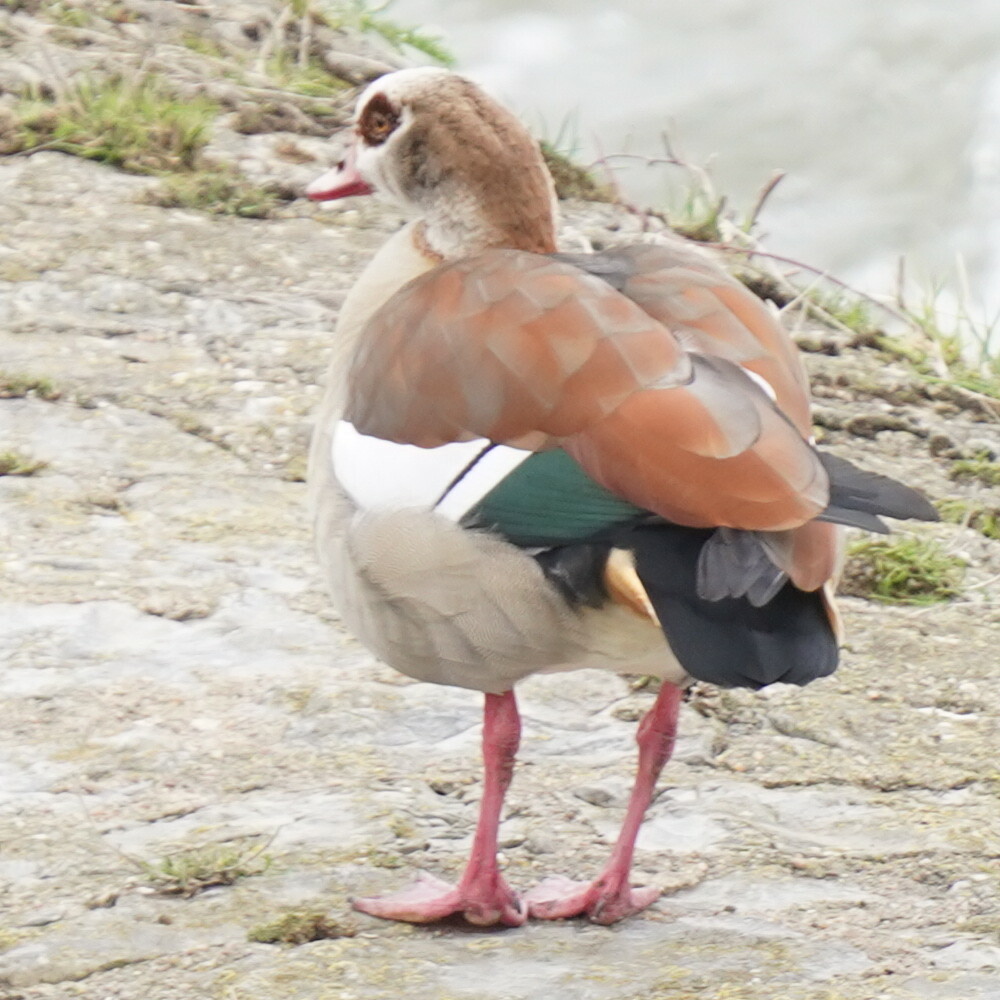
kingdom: Animalia
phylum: Chordata
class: Aves
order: Anseriformes
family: Anatidae
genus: Alopochen
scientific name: Alopochen aegyptiaca
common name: Egyptian goose
